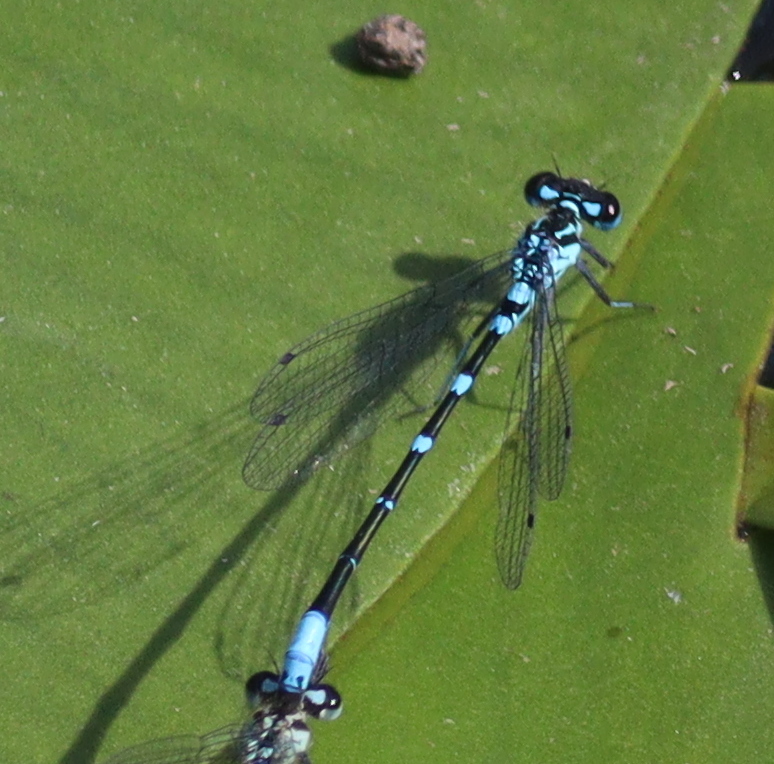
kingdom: Animalia
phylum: Arthropoda
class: Insecta
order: Odonata
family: Coenagrionidae
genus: Coenagrion
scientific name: Coenagrion pulchellum
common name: Variable bluet
